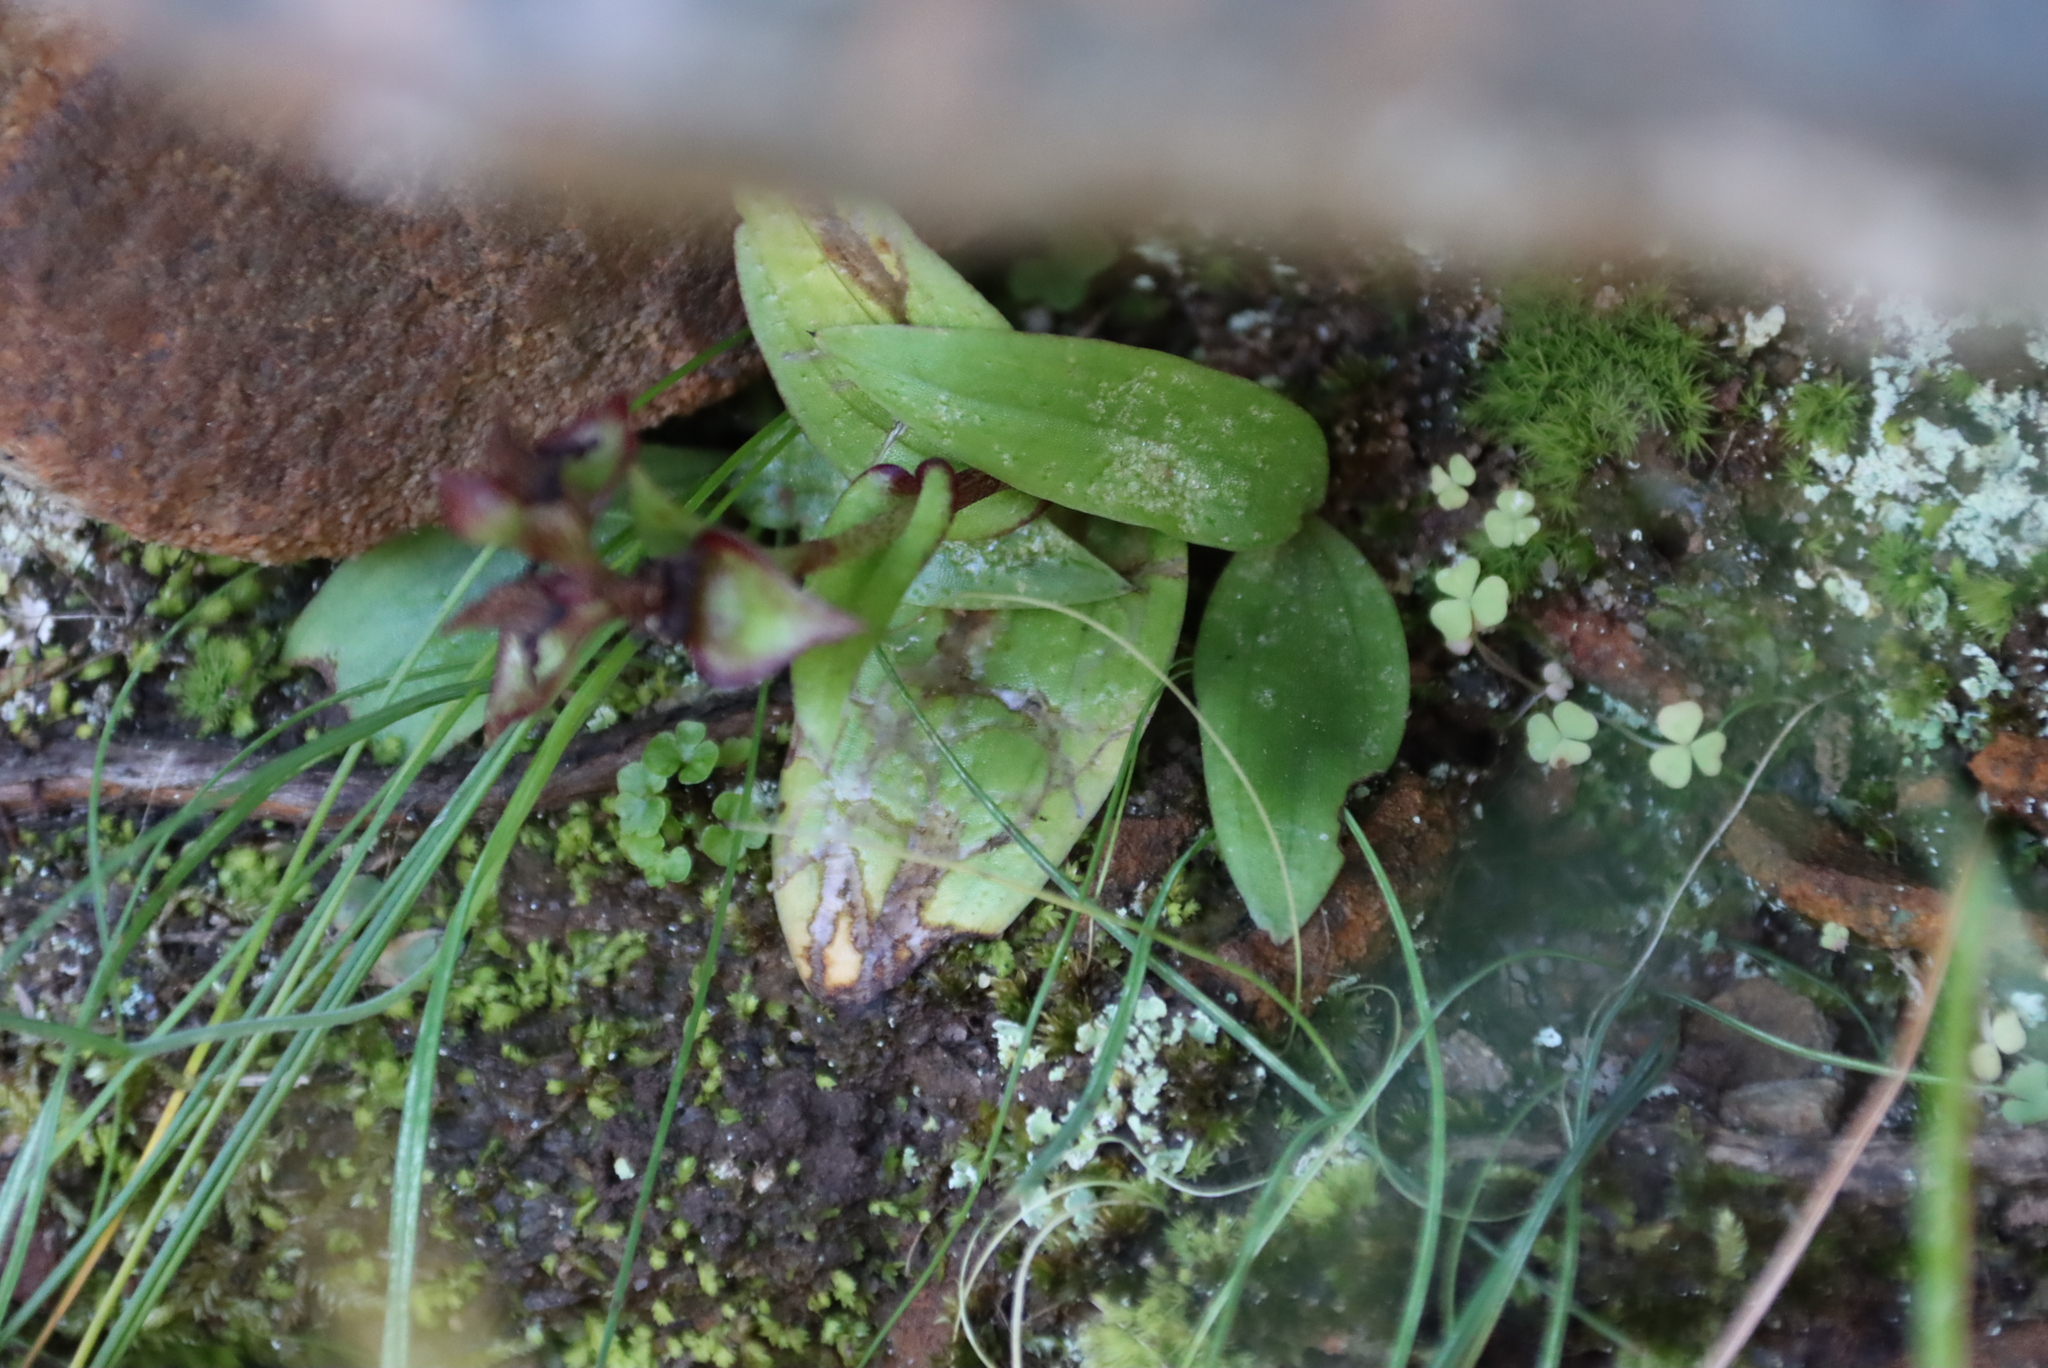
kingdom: Plantae
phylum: Tracheophyta
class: Liliopsida
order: Asparagales
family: Orchidaceae
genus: Satyrium
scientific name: Satyrium bracteatum
